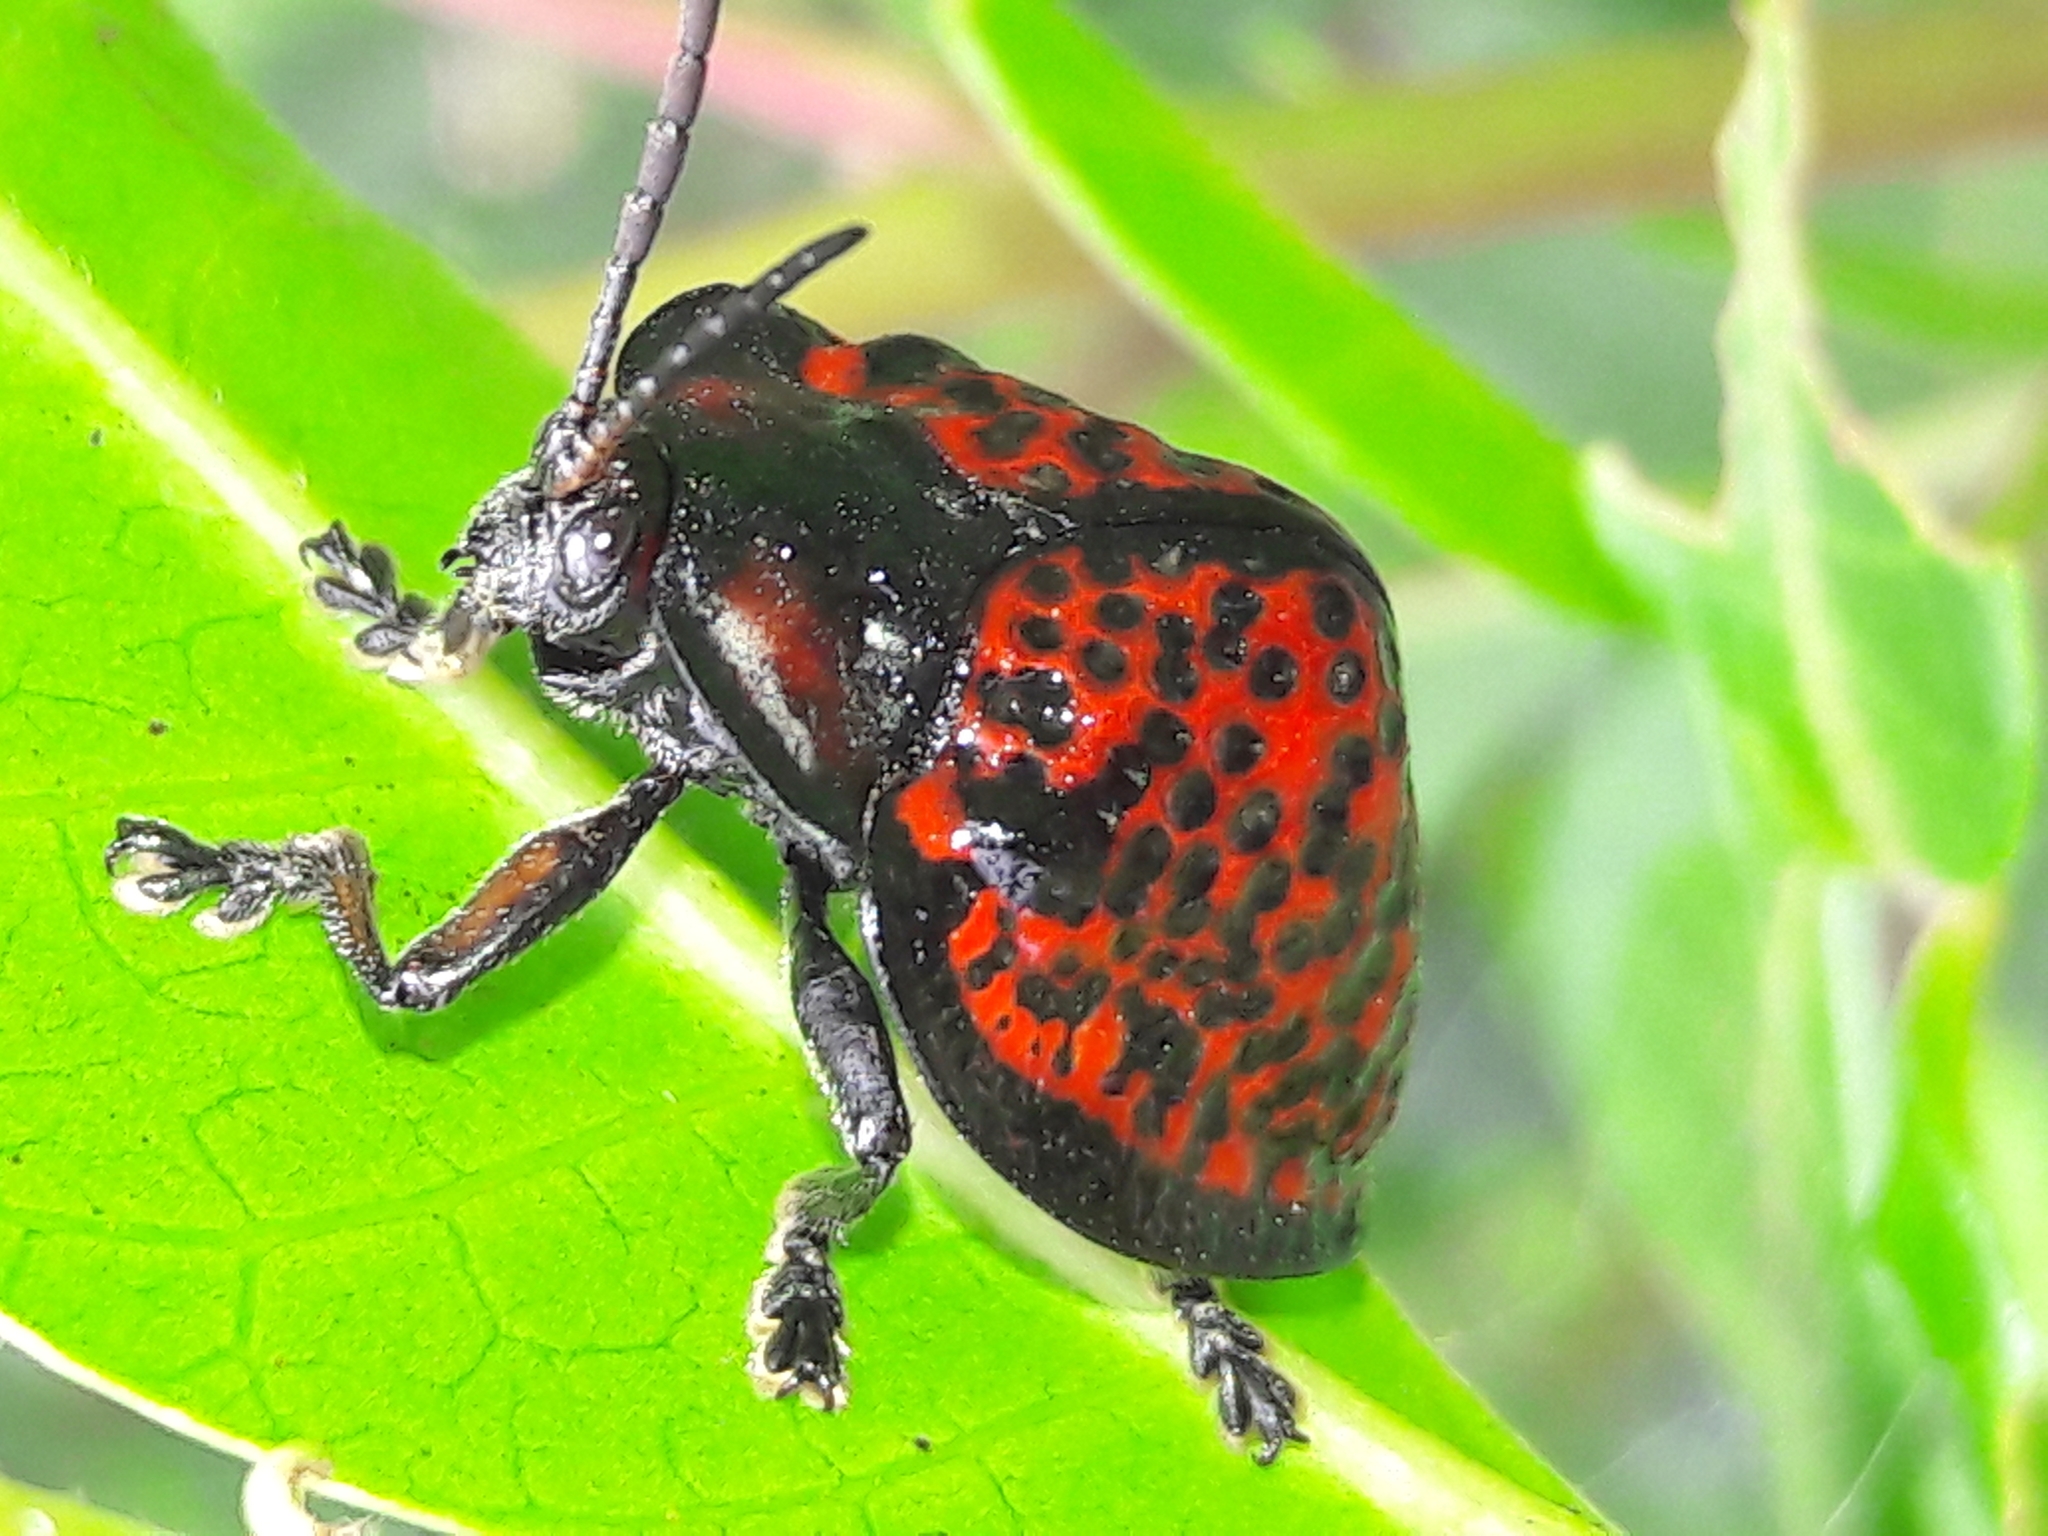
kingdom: Animalia
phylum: Arthropoda
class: Insecta
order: Coleoptera
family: Chrysomelidae
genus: Canistra
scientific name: Canistra irrorata
